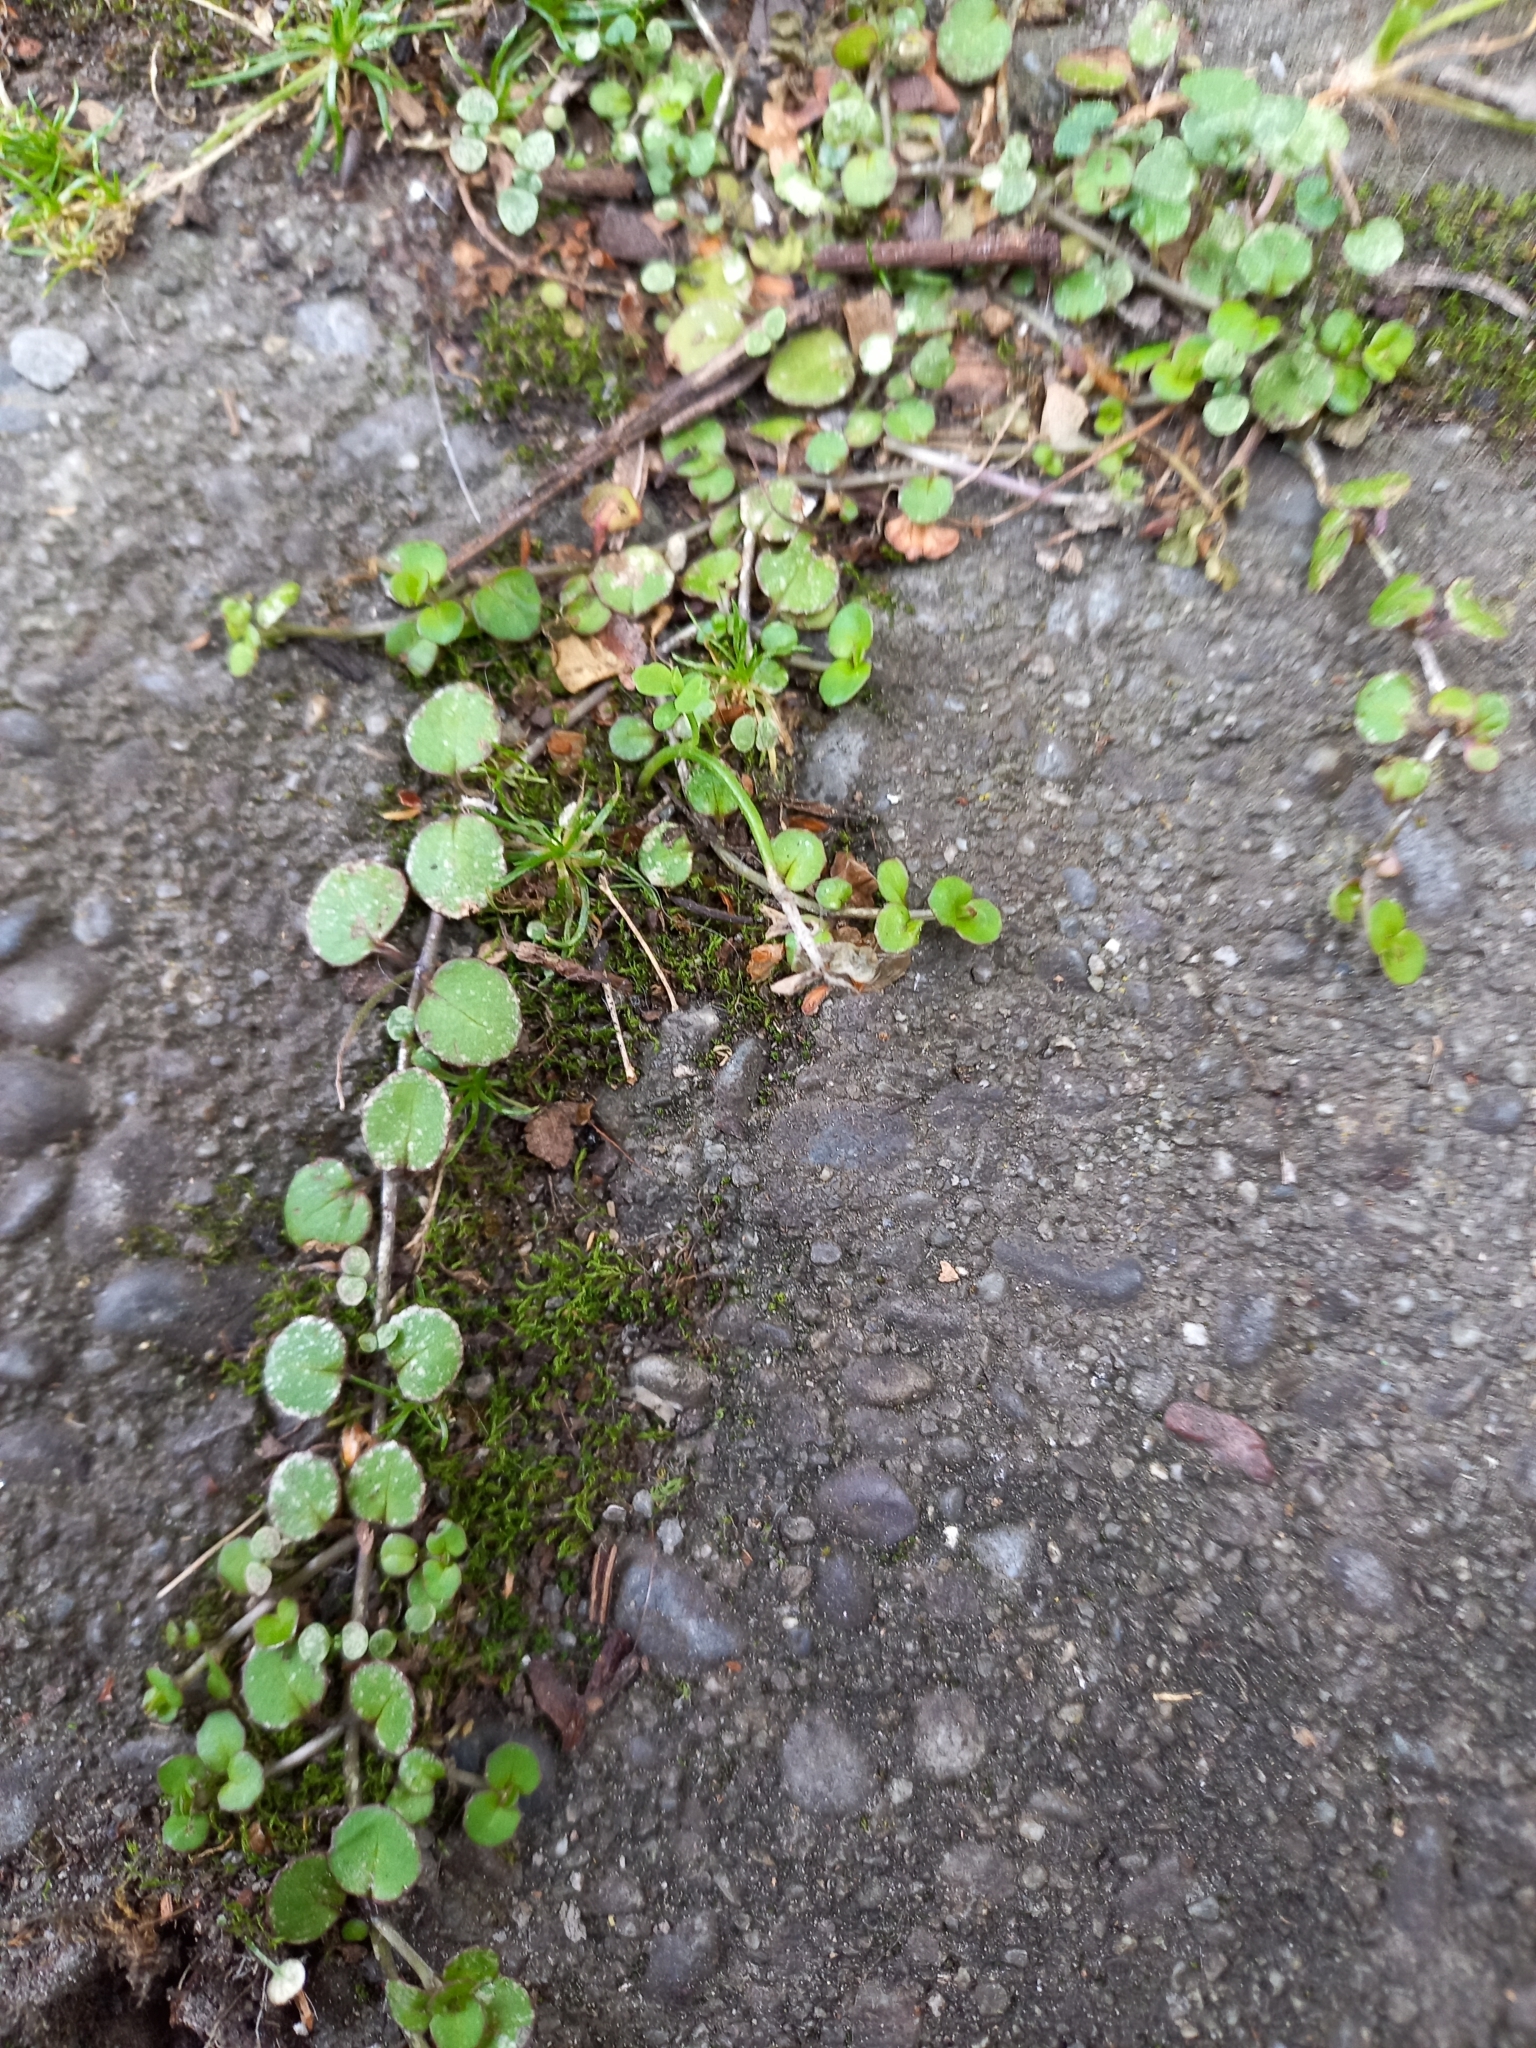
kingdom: Plantae
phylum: Tracheophyta
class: Magnoliopsida
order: Myrtales
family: Onagraceae
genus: Epilobium
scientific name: Epilobium nummularifolium
